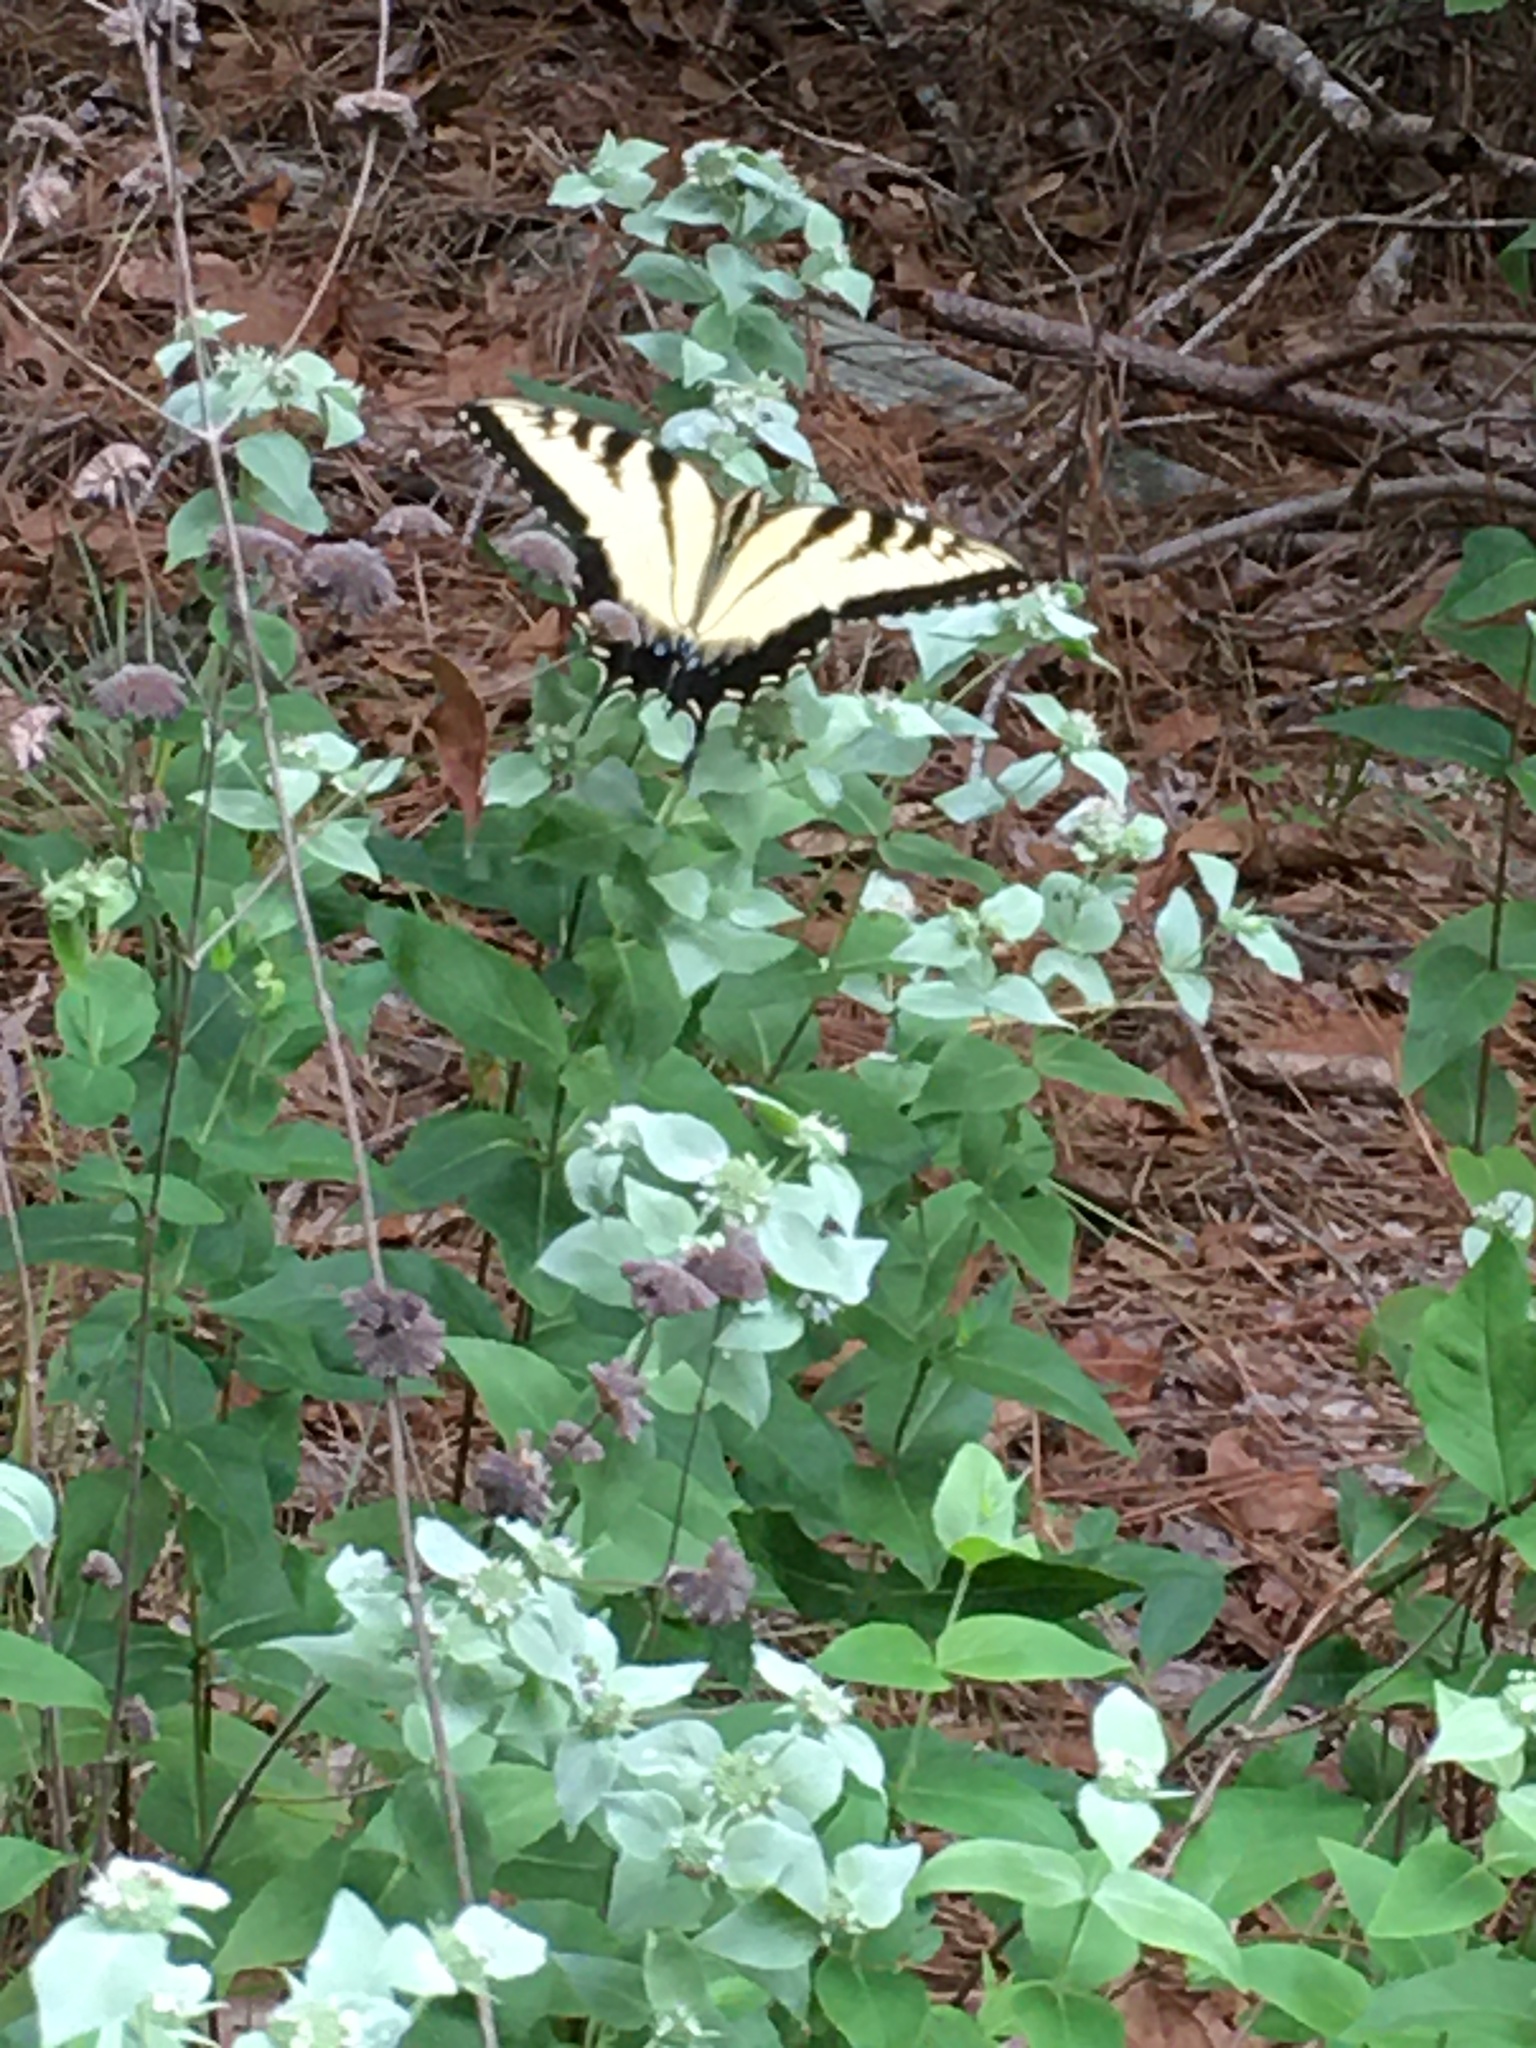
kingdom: Animalia
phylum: Arthropoda
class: Insecta
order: Lepidoptera
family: Papilionidae
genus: Papilio
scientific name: Papilio glaucus
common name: Tiger swallowtail
